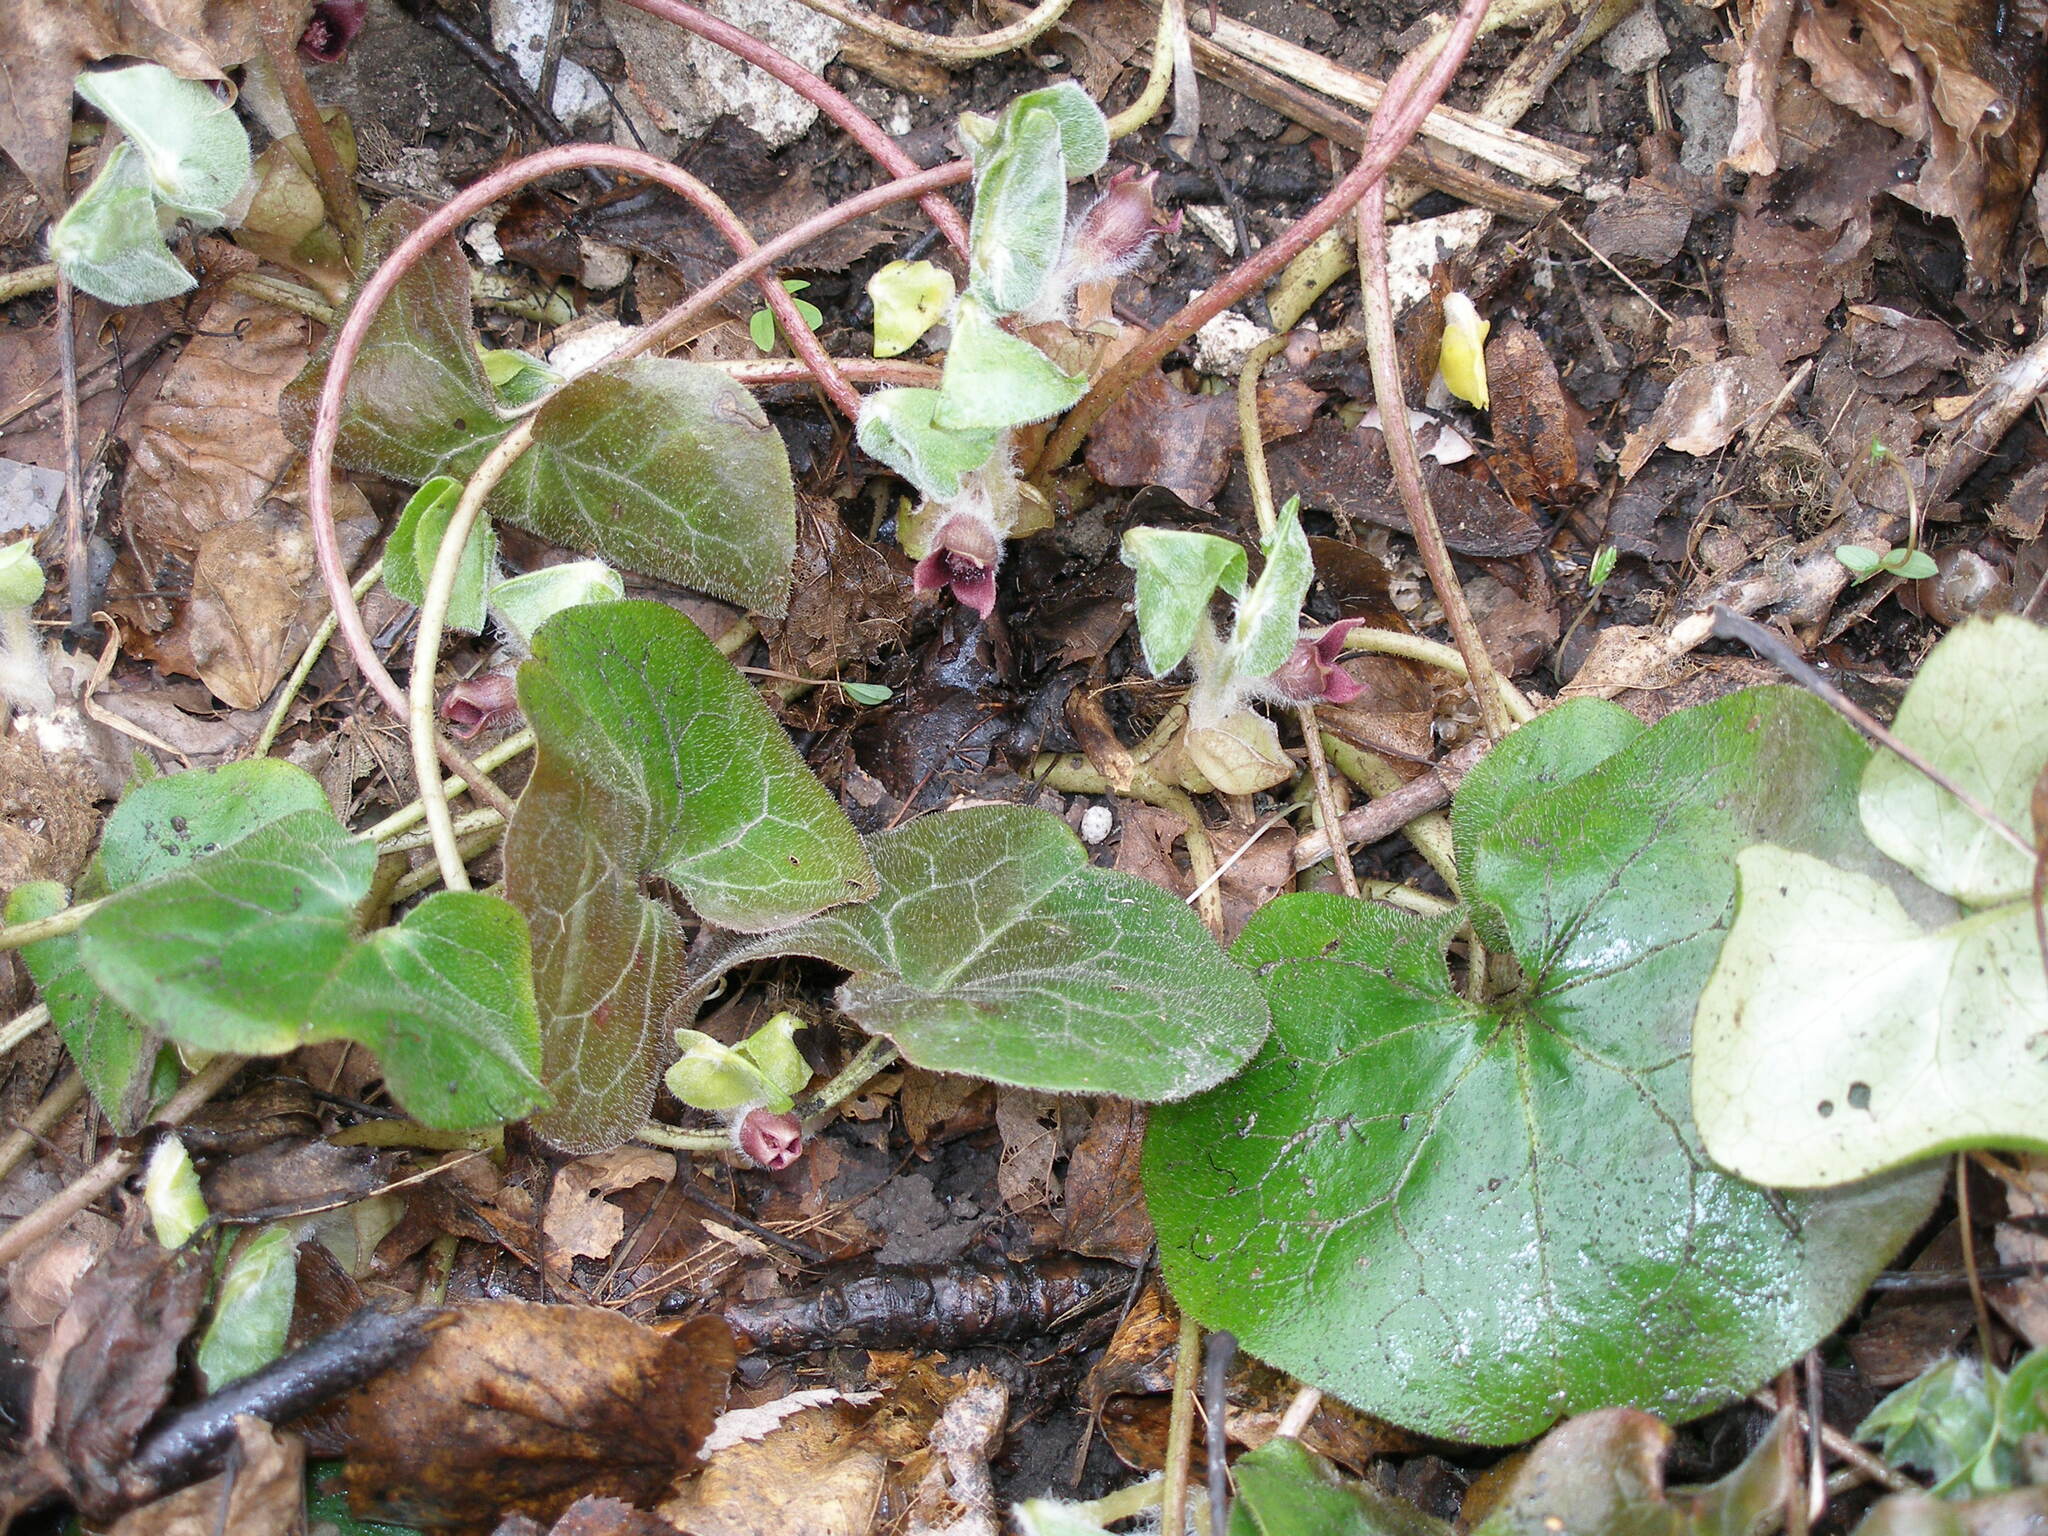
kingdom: Plantae
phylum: Tracheophyta
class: Magnoliopsida
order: Piperales
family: Aristolochiaceae
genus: Asarum
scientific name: Asarum europaeum
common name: Asarabacca
